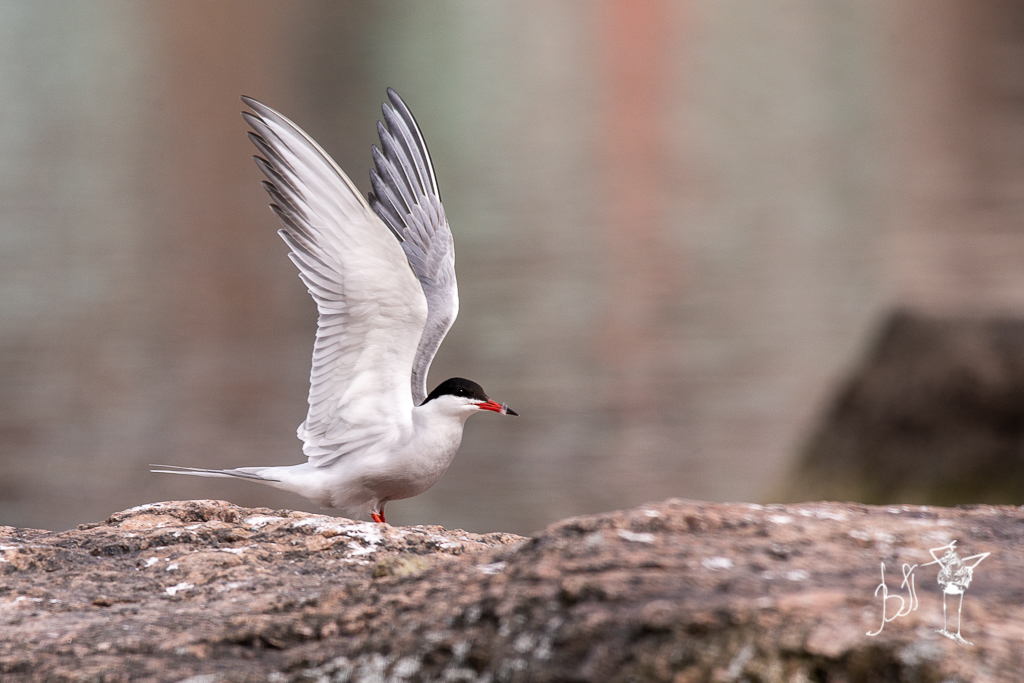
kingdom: Animalia
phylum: Chordata
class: Aves
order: Charadriiformes
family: Laridae
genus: Sterna
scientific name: Sterna hirundo
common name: Common tern
